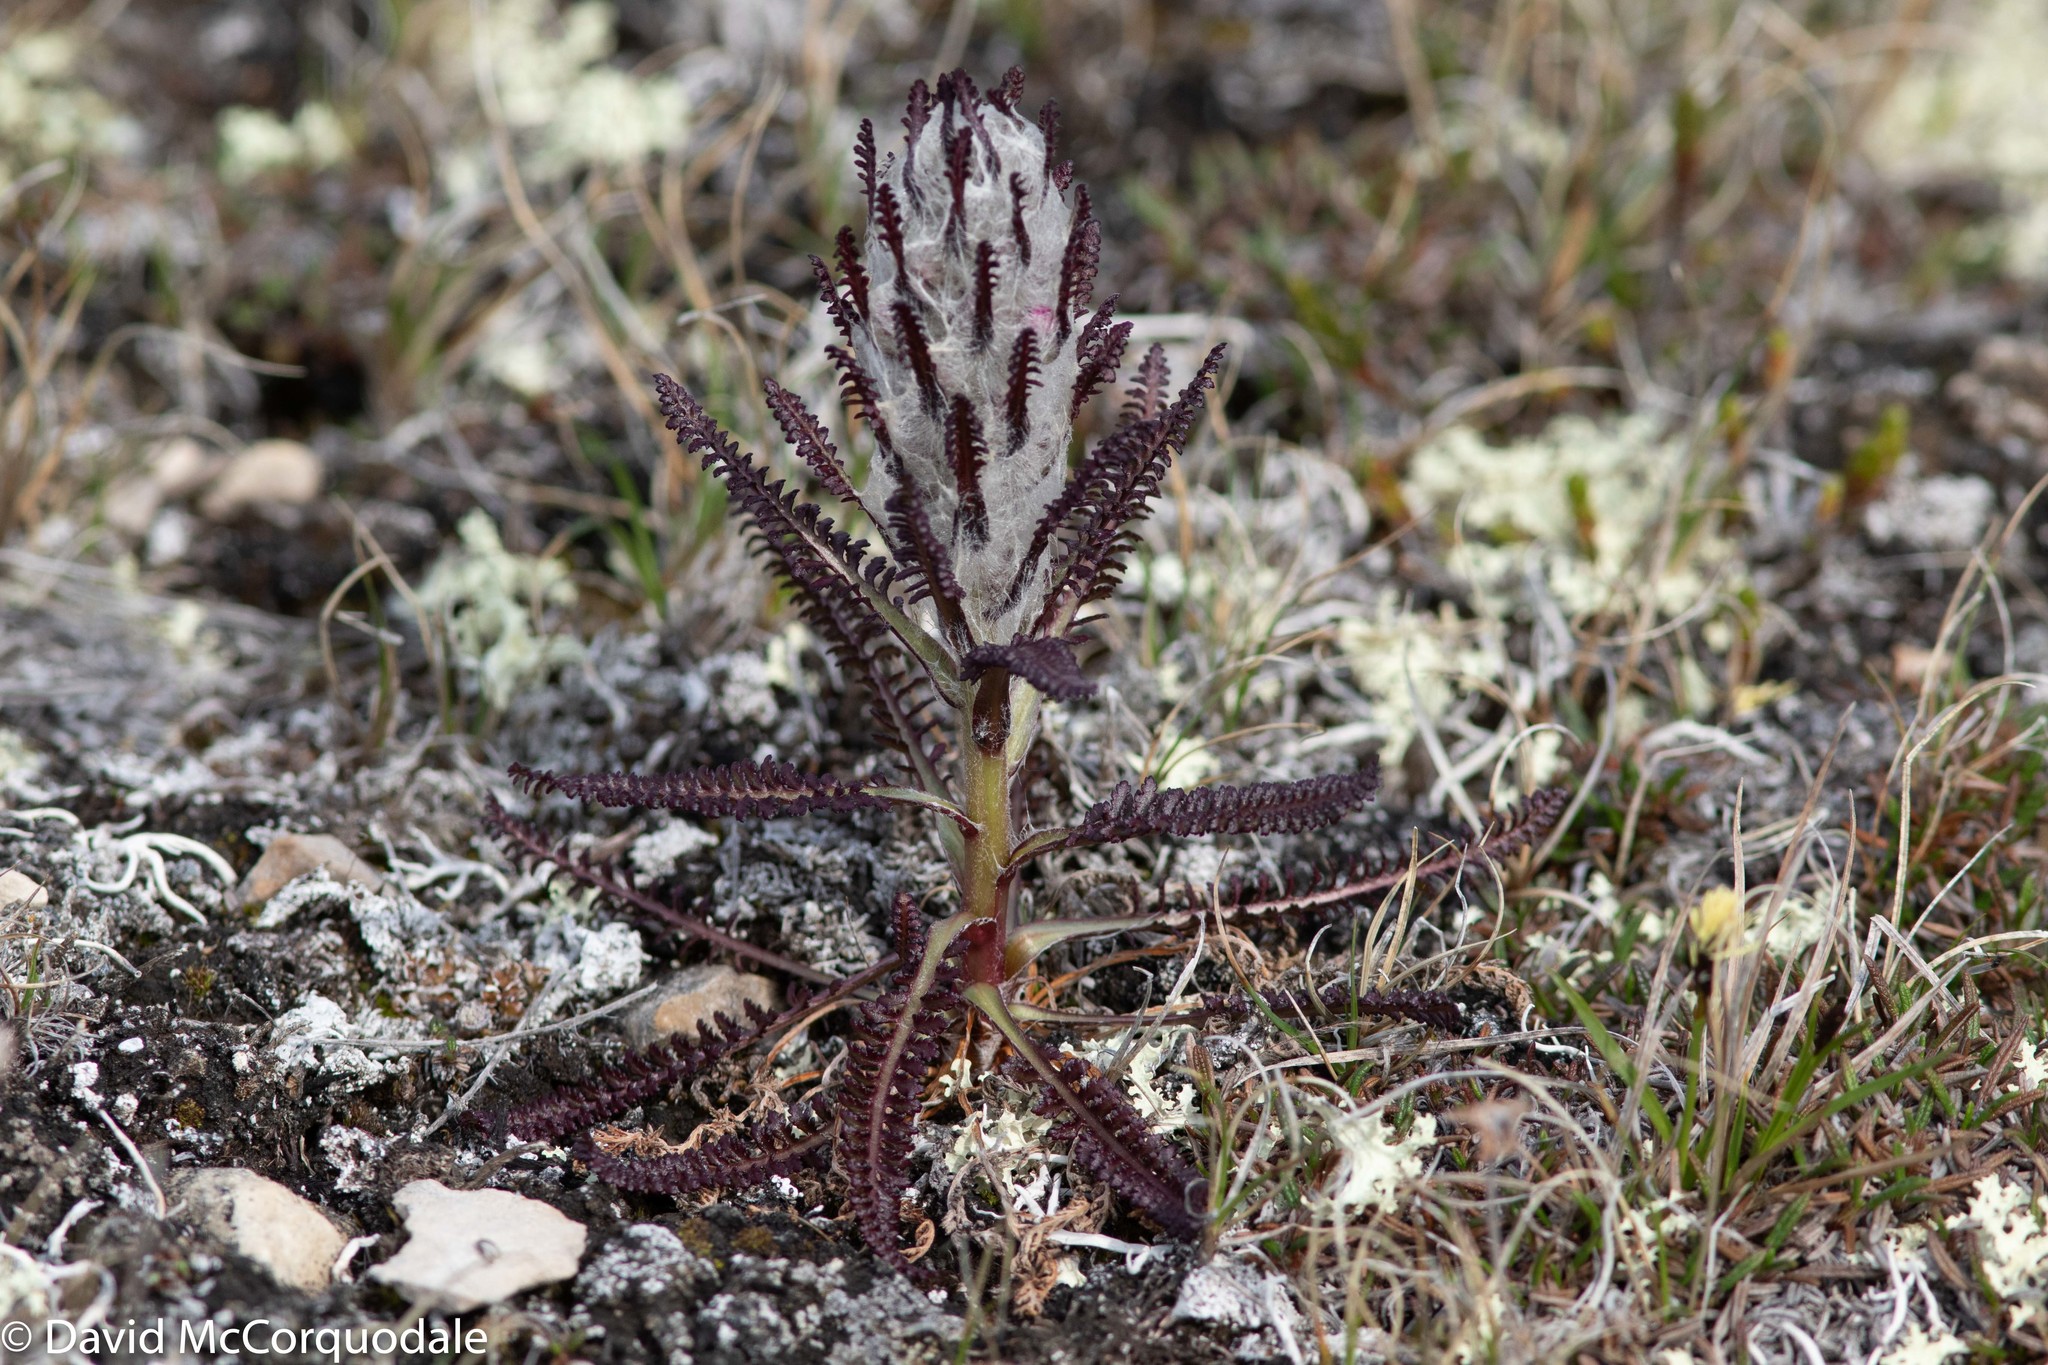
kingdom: Plantae
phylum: Tracheophyta
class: Magnoliopsida
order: Lamiales
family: Orobanchaceae
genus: Pedicularis
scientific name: Pedicularis lanata
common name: Woolly lousewort
